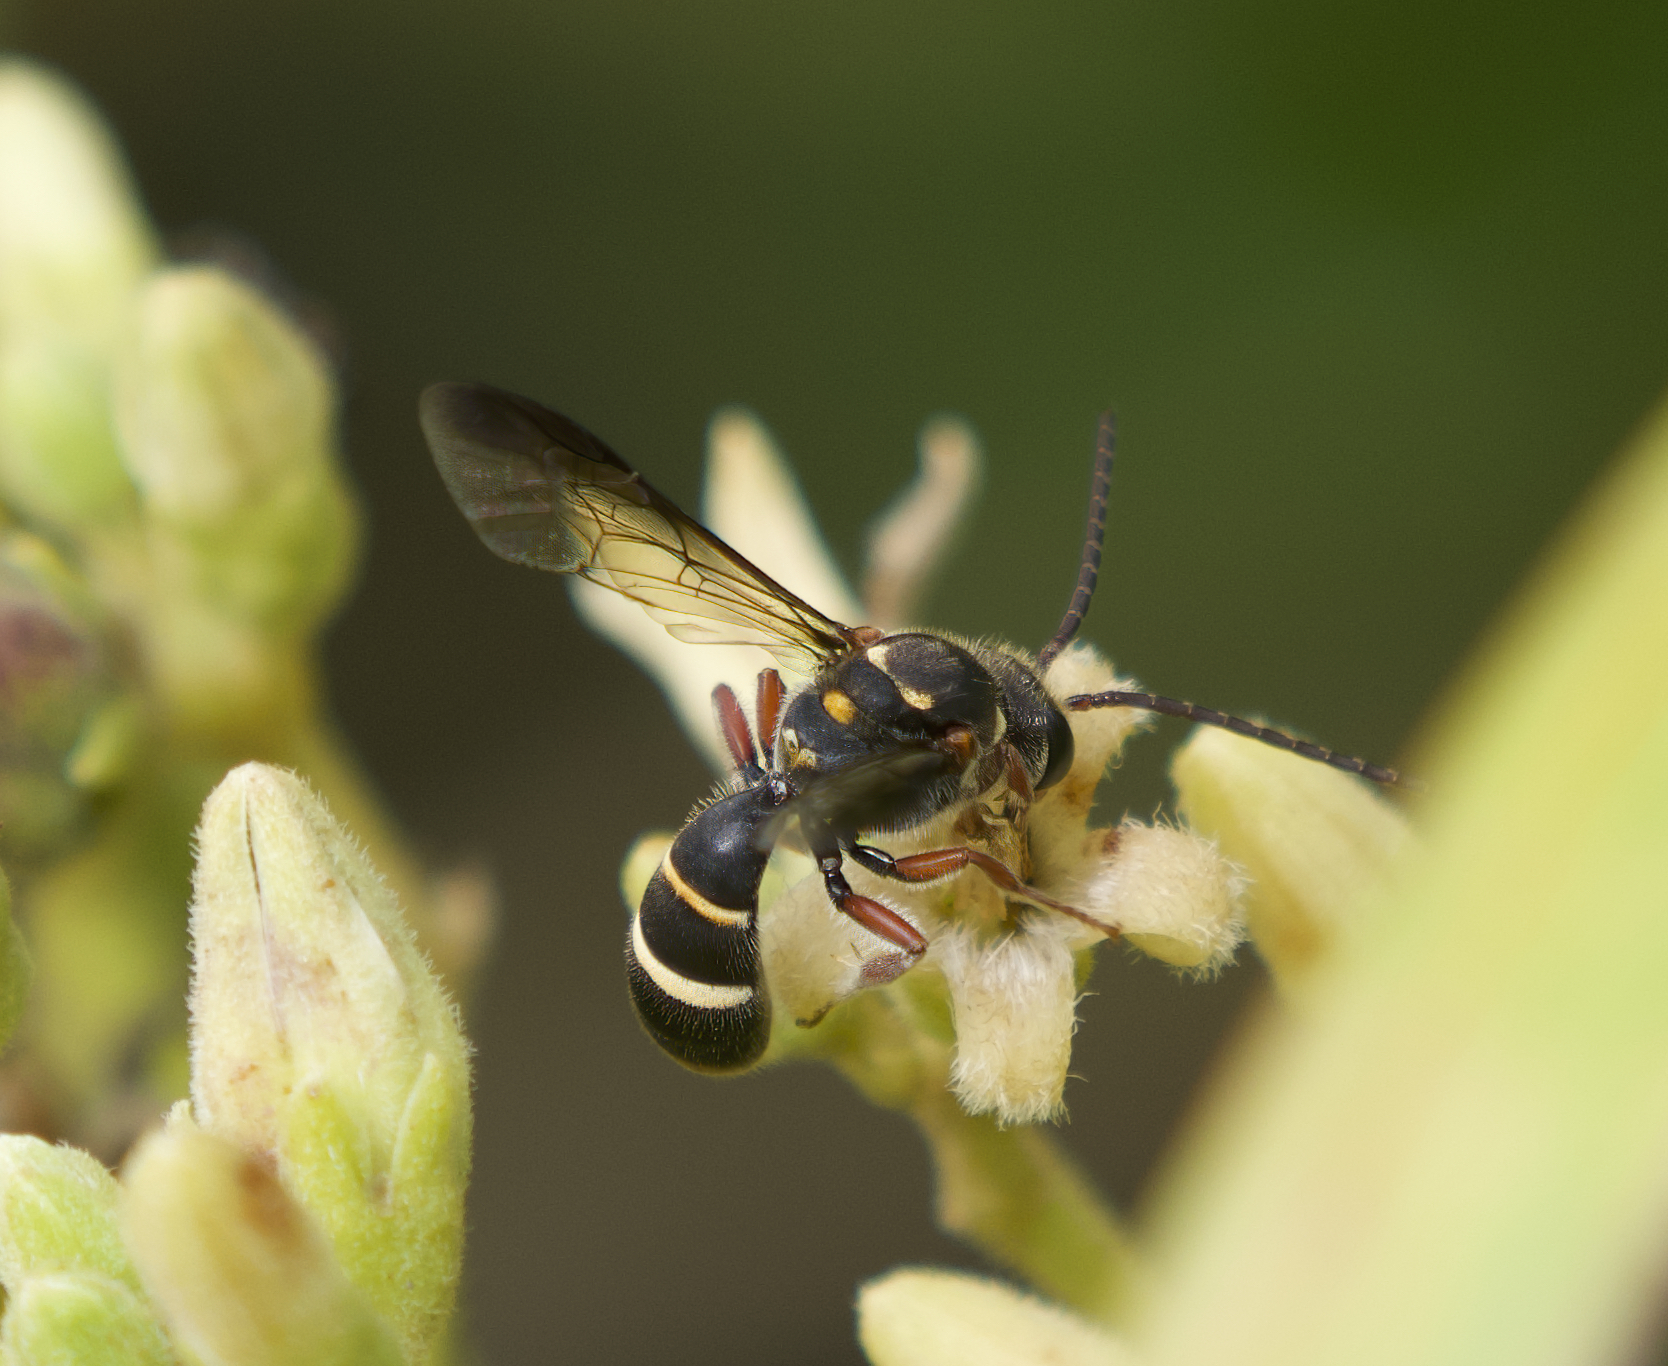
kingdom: Animalia
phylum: Arthropoda
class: Insecta
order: Hymenoptera
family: Halictidae
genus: Lasioglossum
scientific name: Lasioglossum peraustrale
